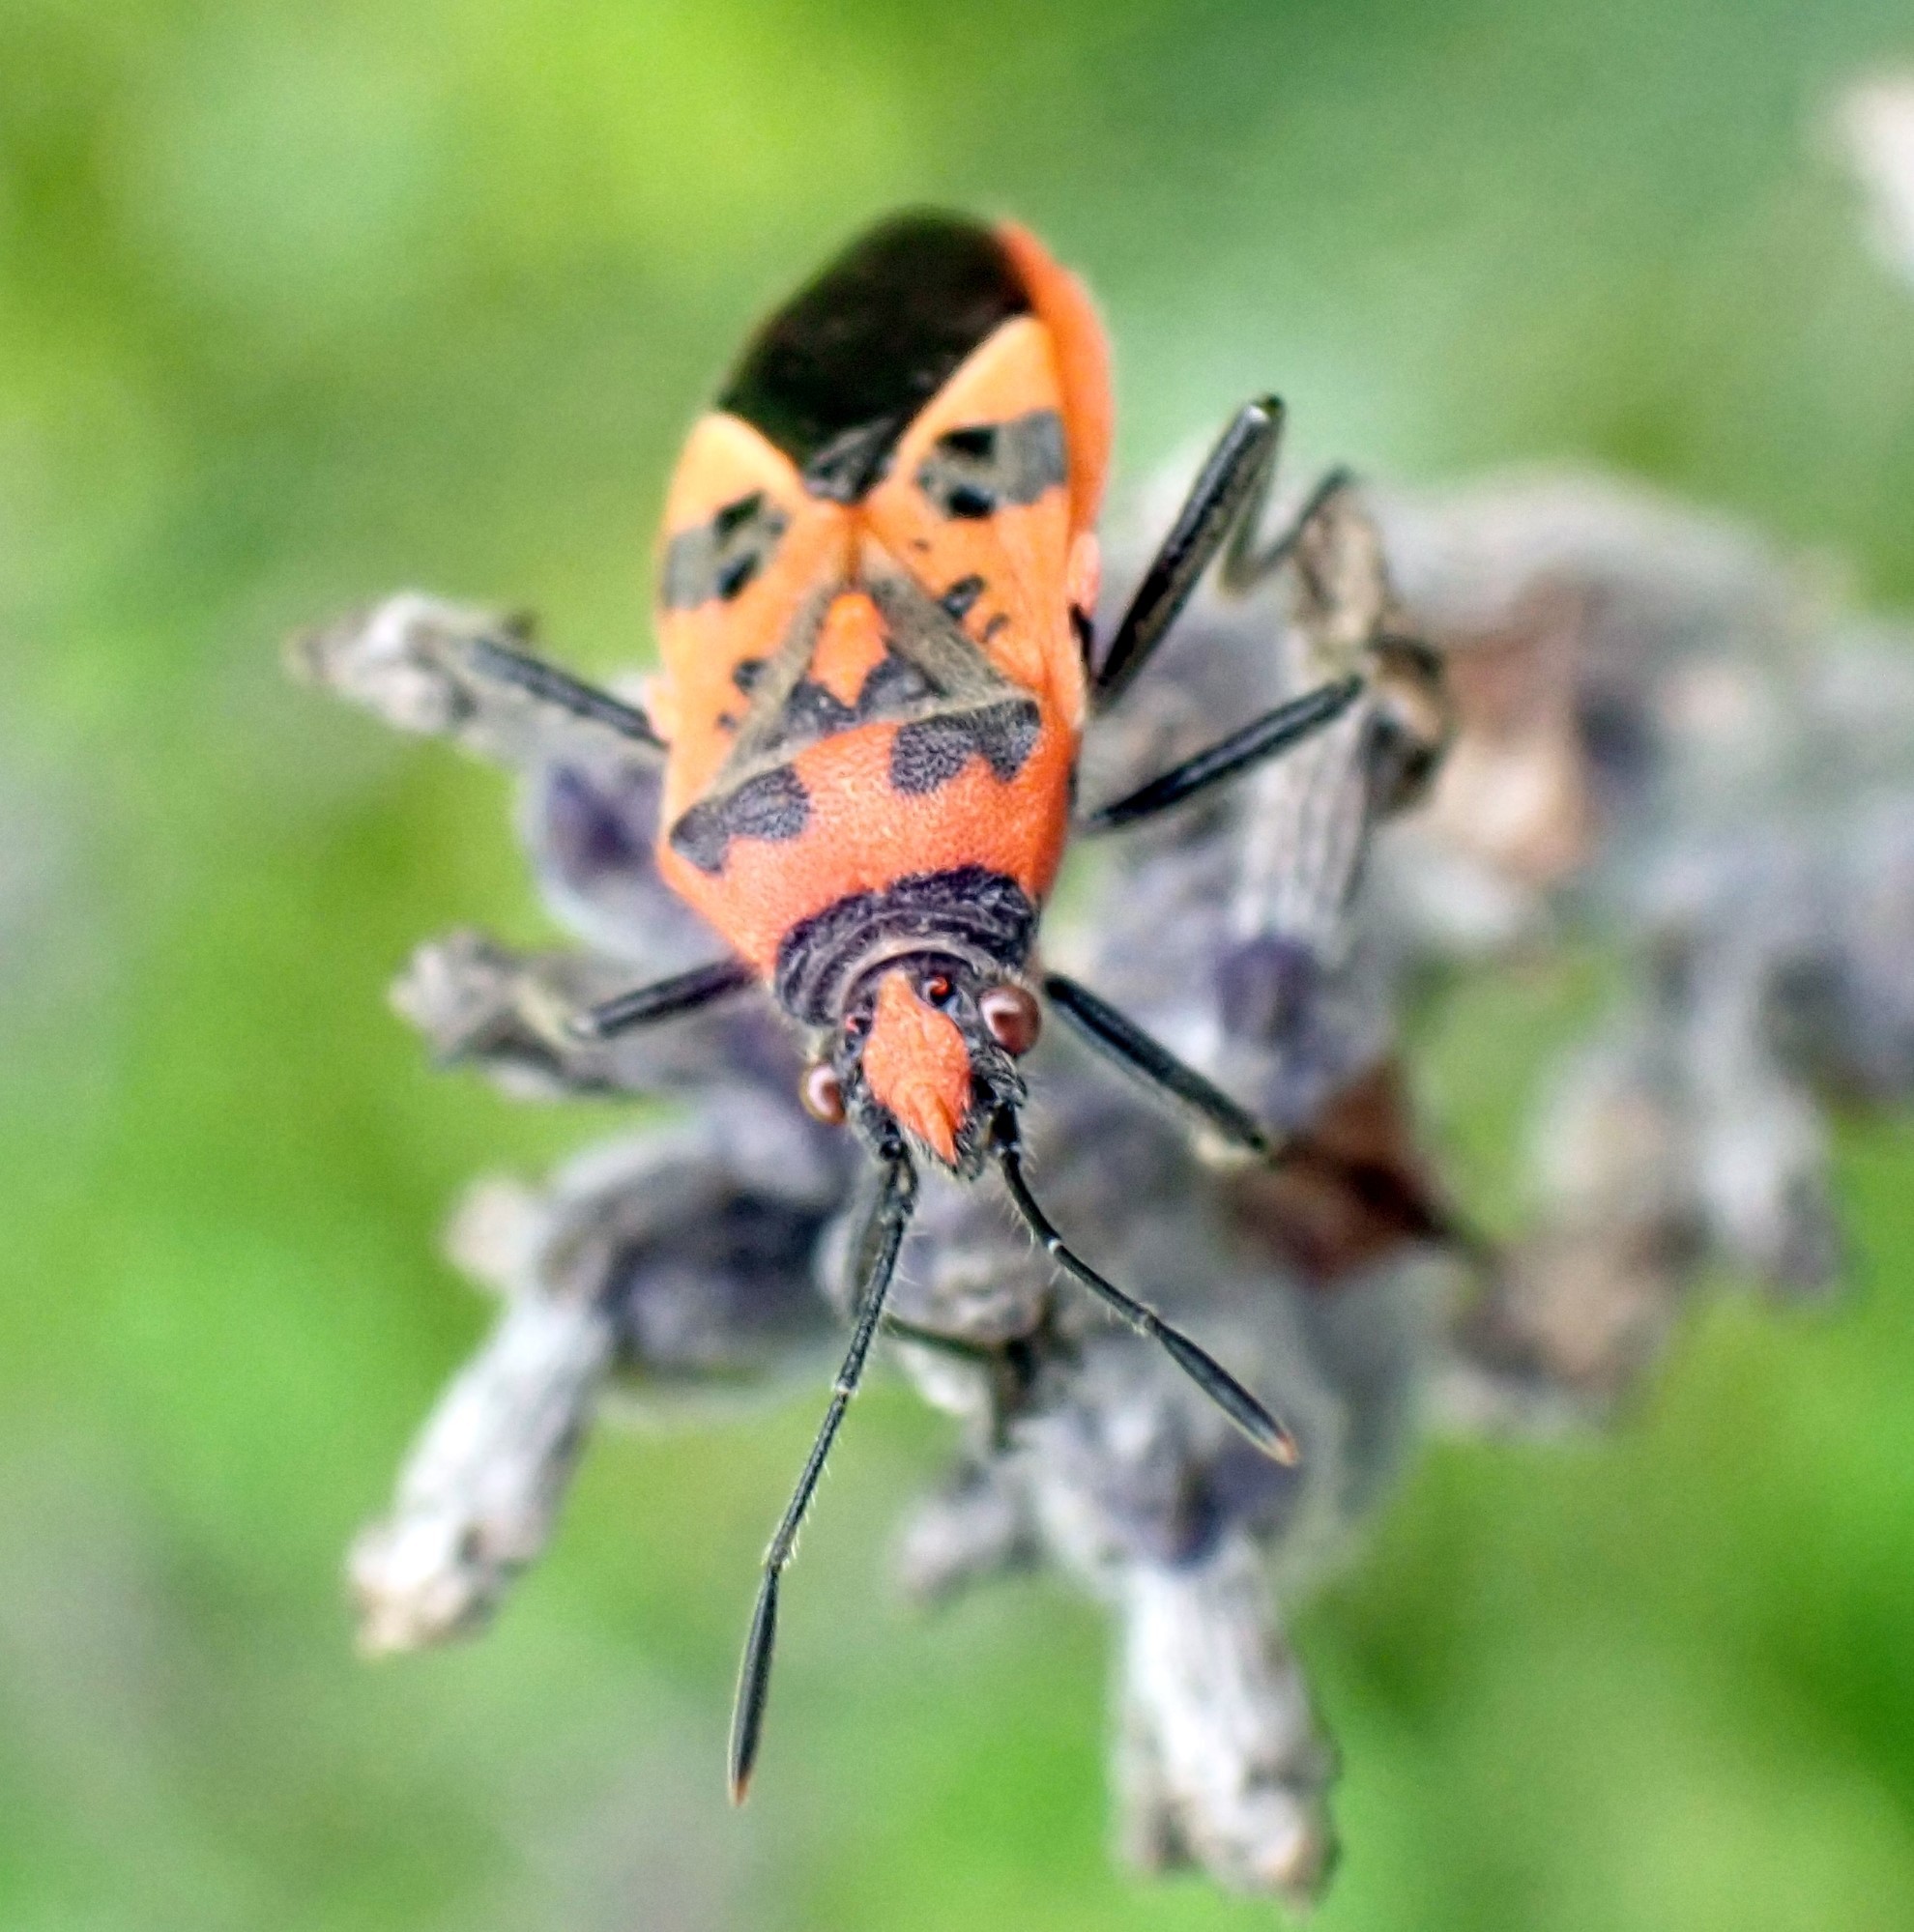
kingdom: Animalia
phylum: Arthropoda
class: Insecta
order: Hemiptera
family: Rhopalidae
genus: Corizus
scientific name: Corizus hyoscyami
